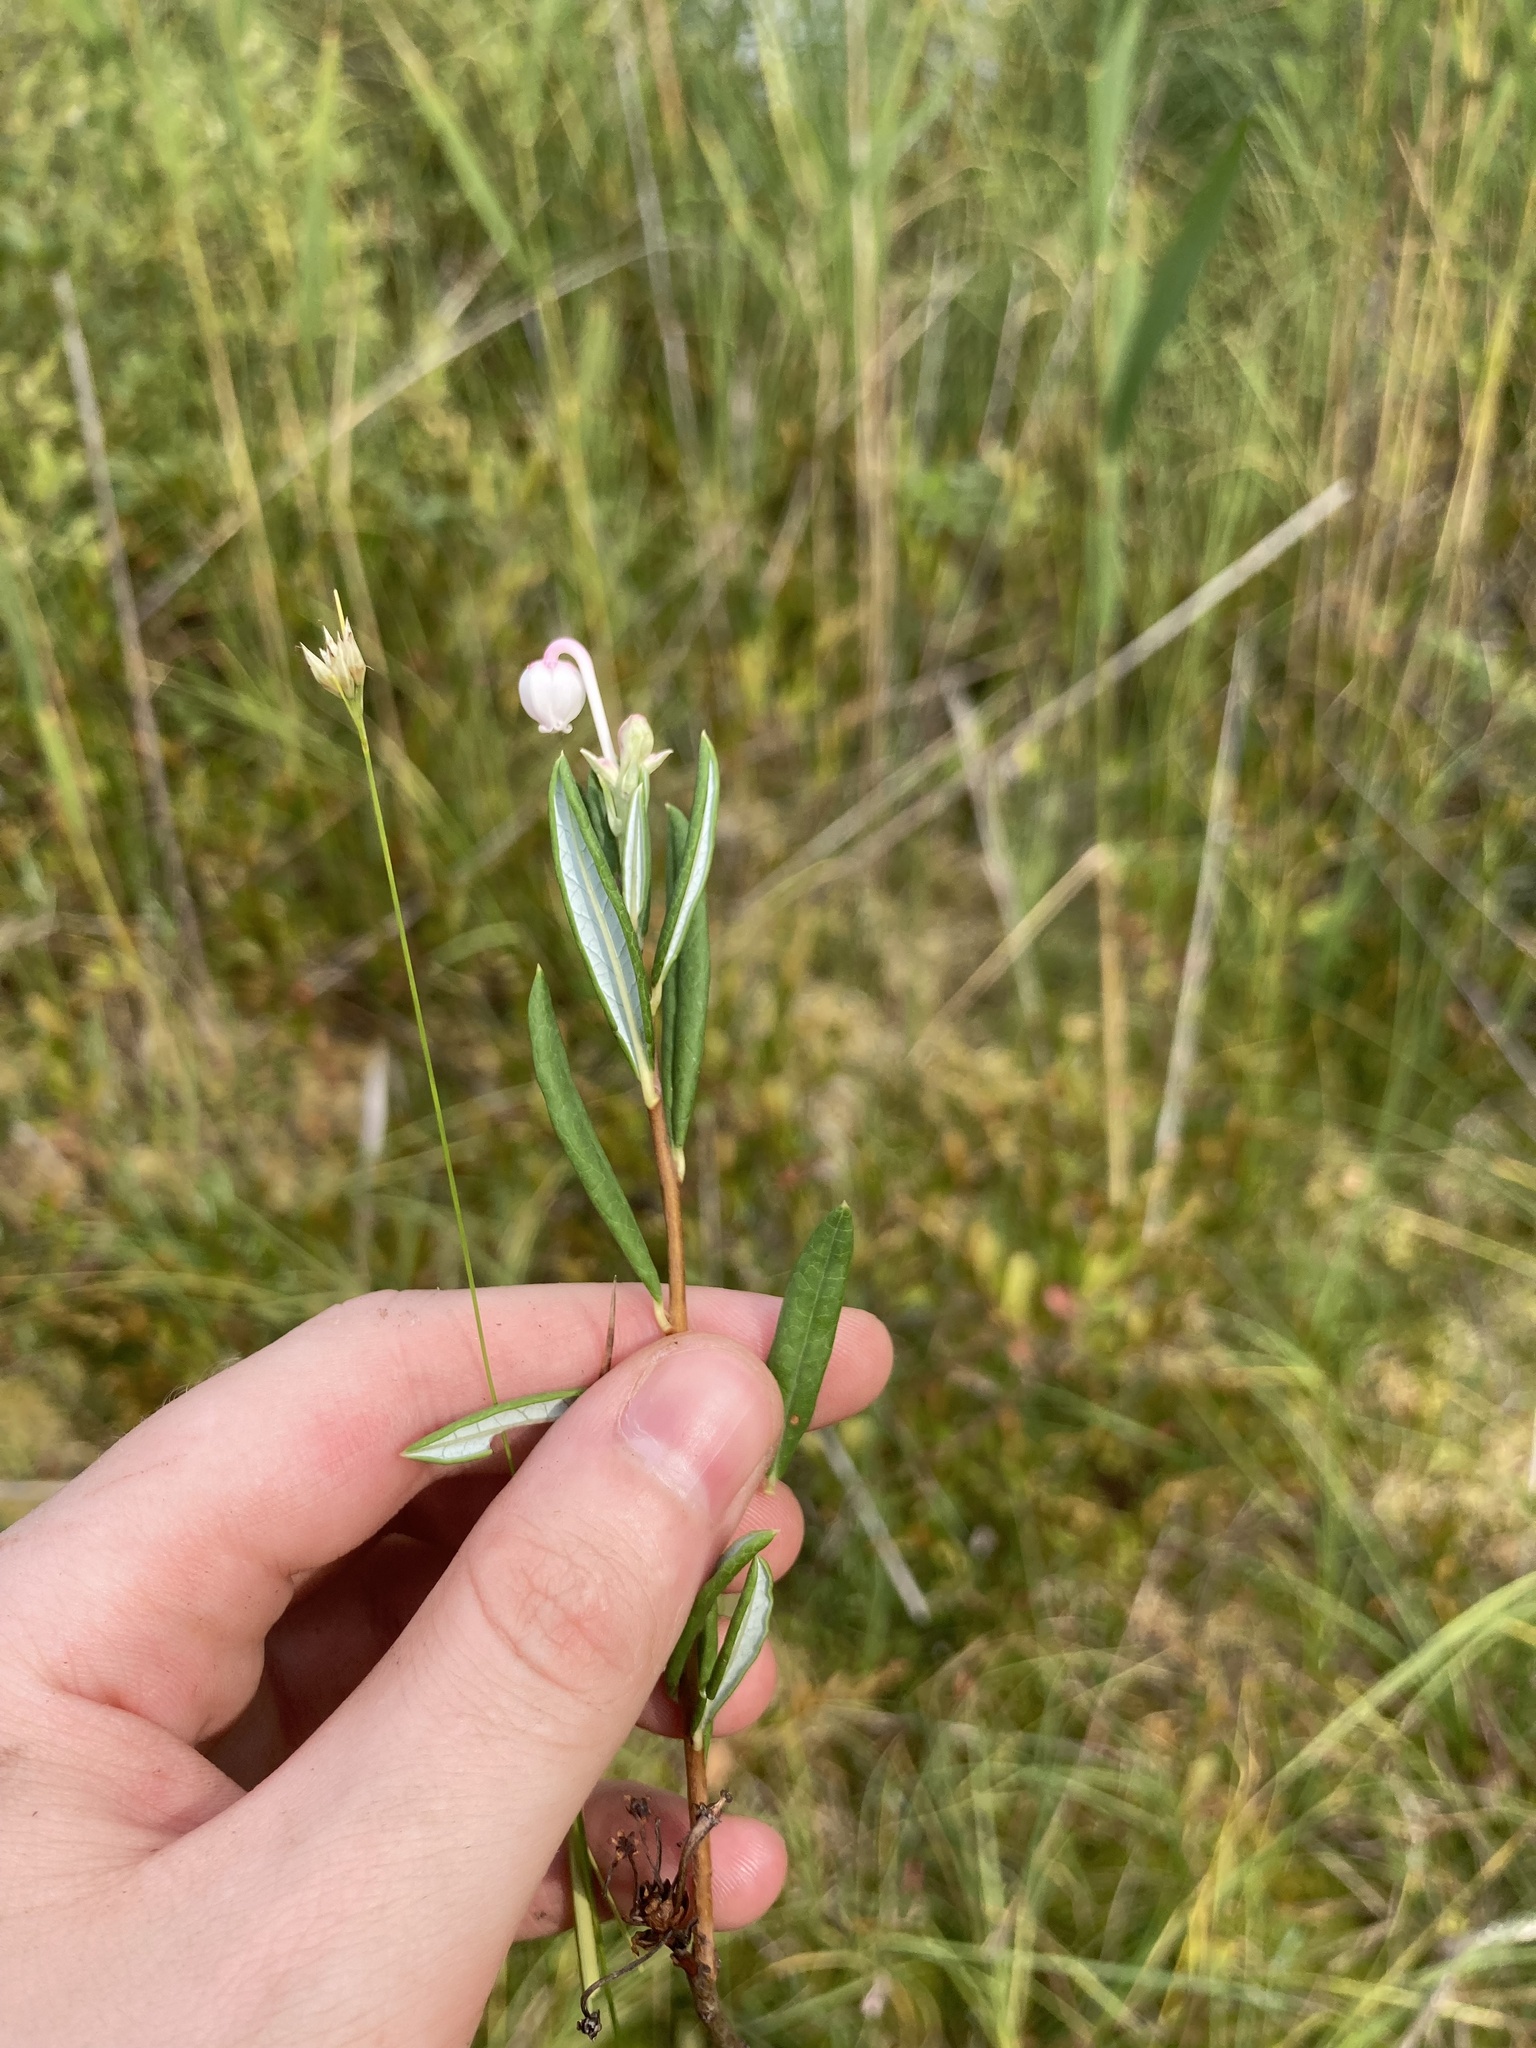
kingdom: Plantae
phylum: Tracheophyta
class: Magnoliopsida
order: Ericales
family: Ericaceae
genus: Andromeda
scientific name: Andromeda polifolia
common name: Bog-rosemary
